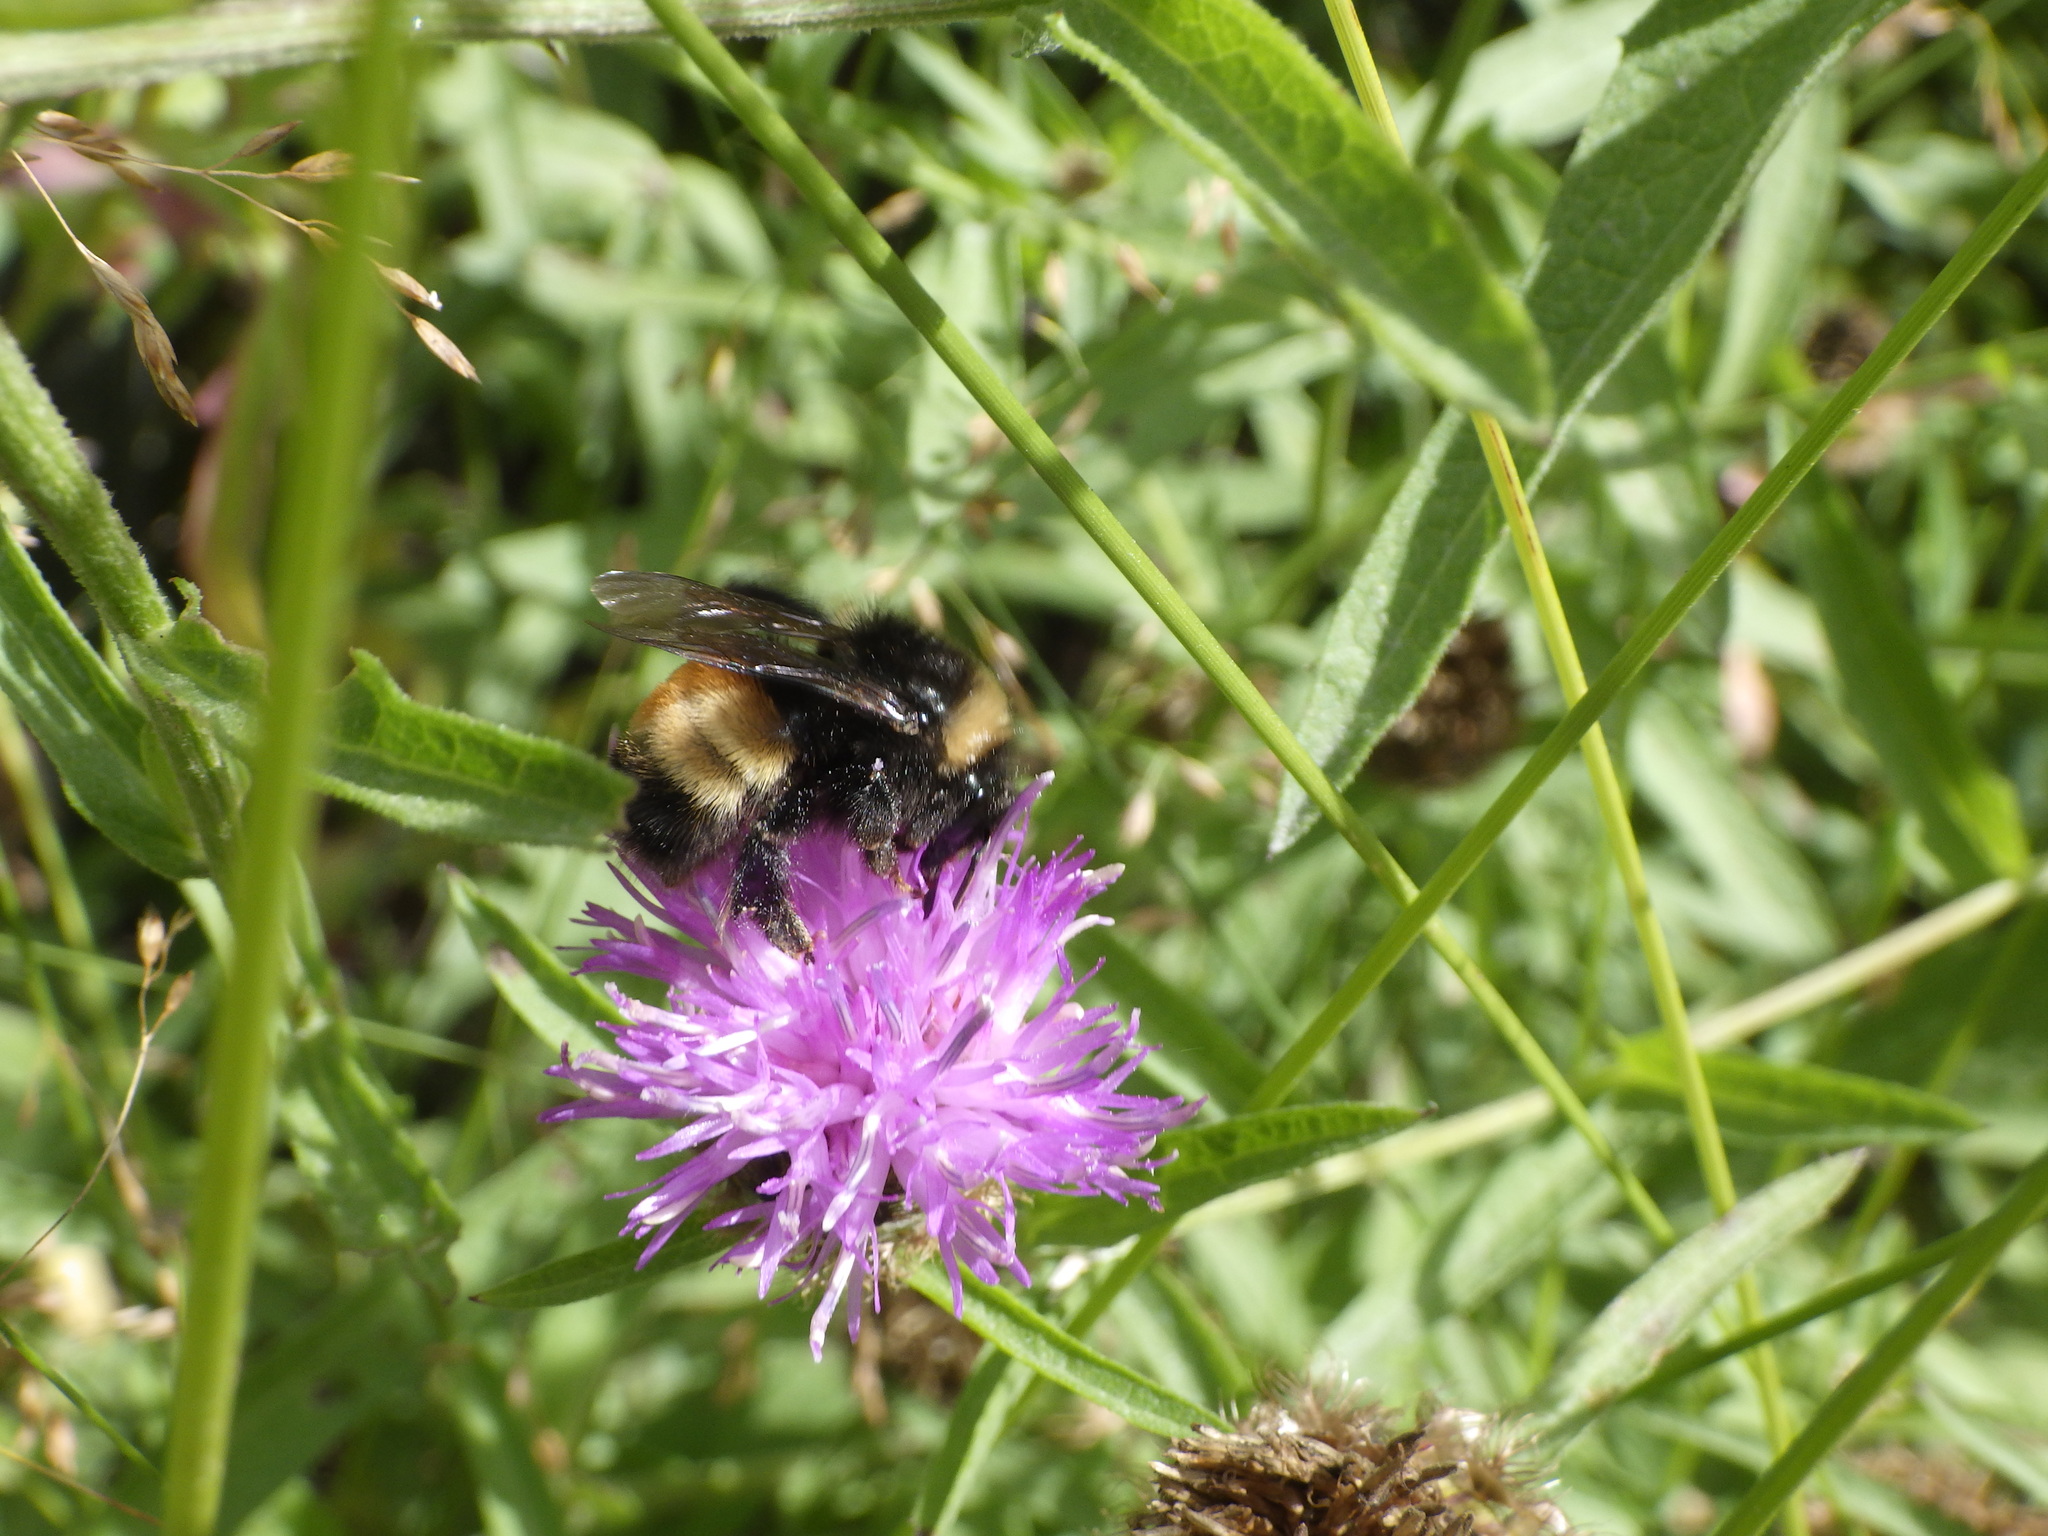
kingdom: Animalia
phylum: Arthropoda
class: Insecta
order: Hymenoptera
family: Apidae
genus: Bombus
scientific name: Bombus terricola
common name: Yellow-banded bumble bee
